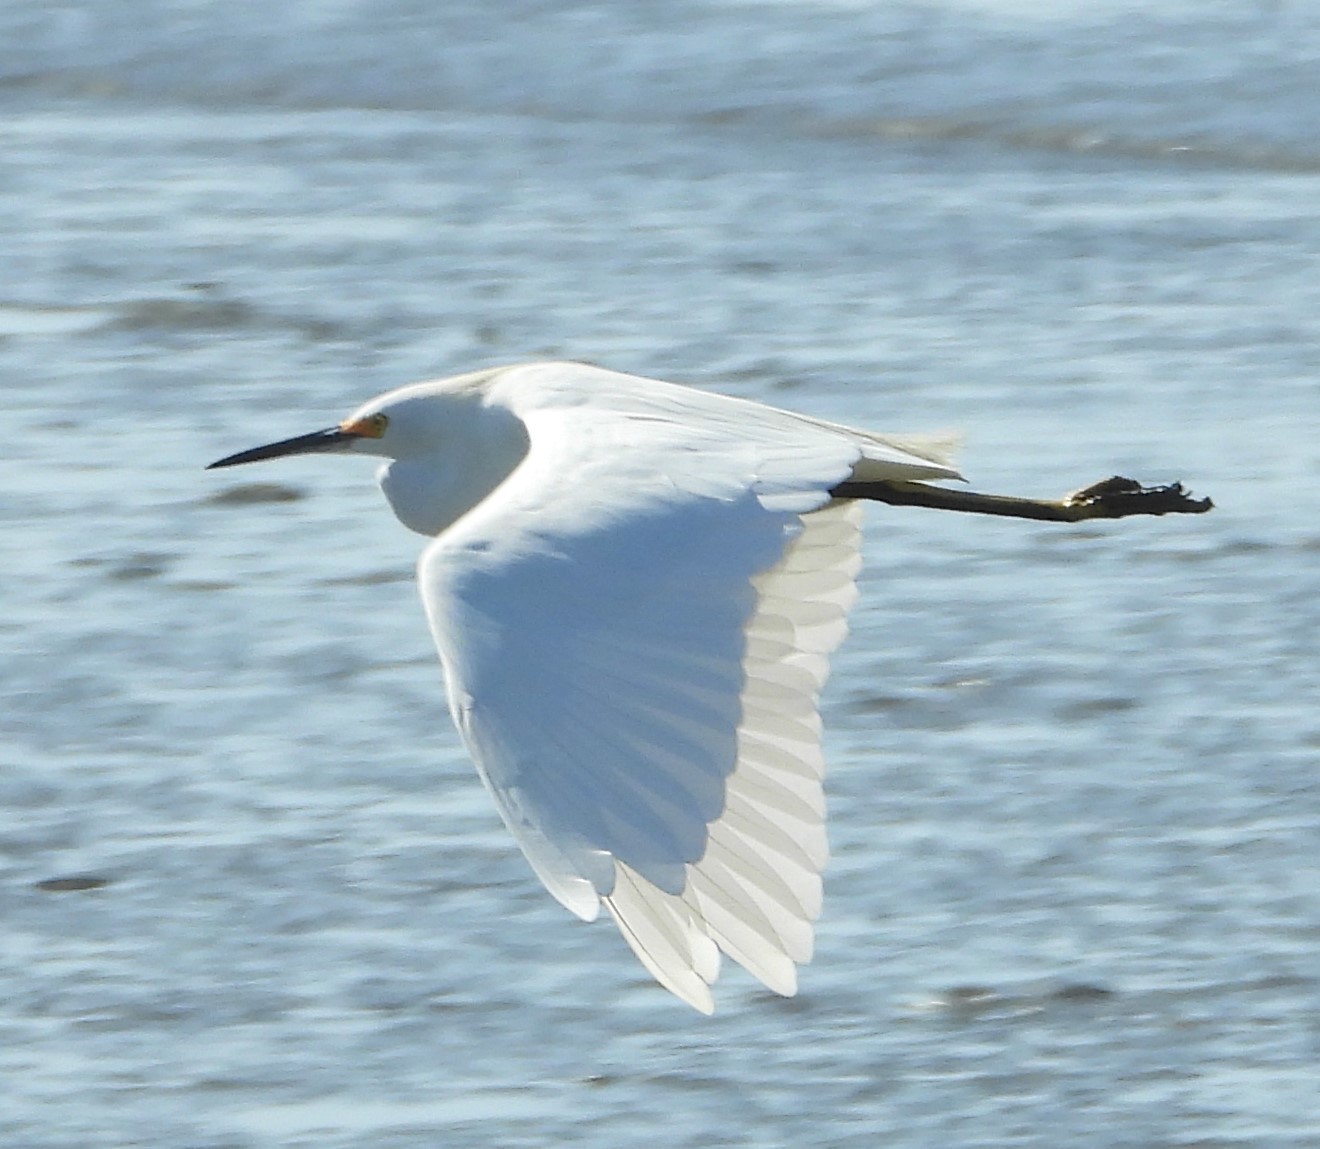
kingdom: Animalia
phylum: Chordata
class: Aves
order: Pelecaniformes
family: Ardeidae
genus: Egretta
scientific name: Egretta thula
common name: Snowy egret
